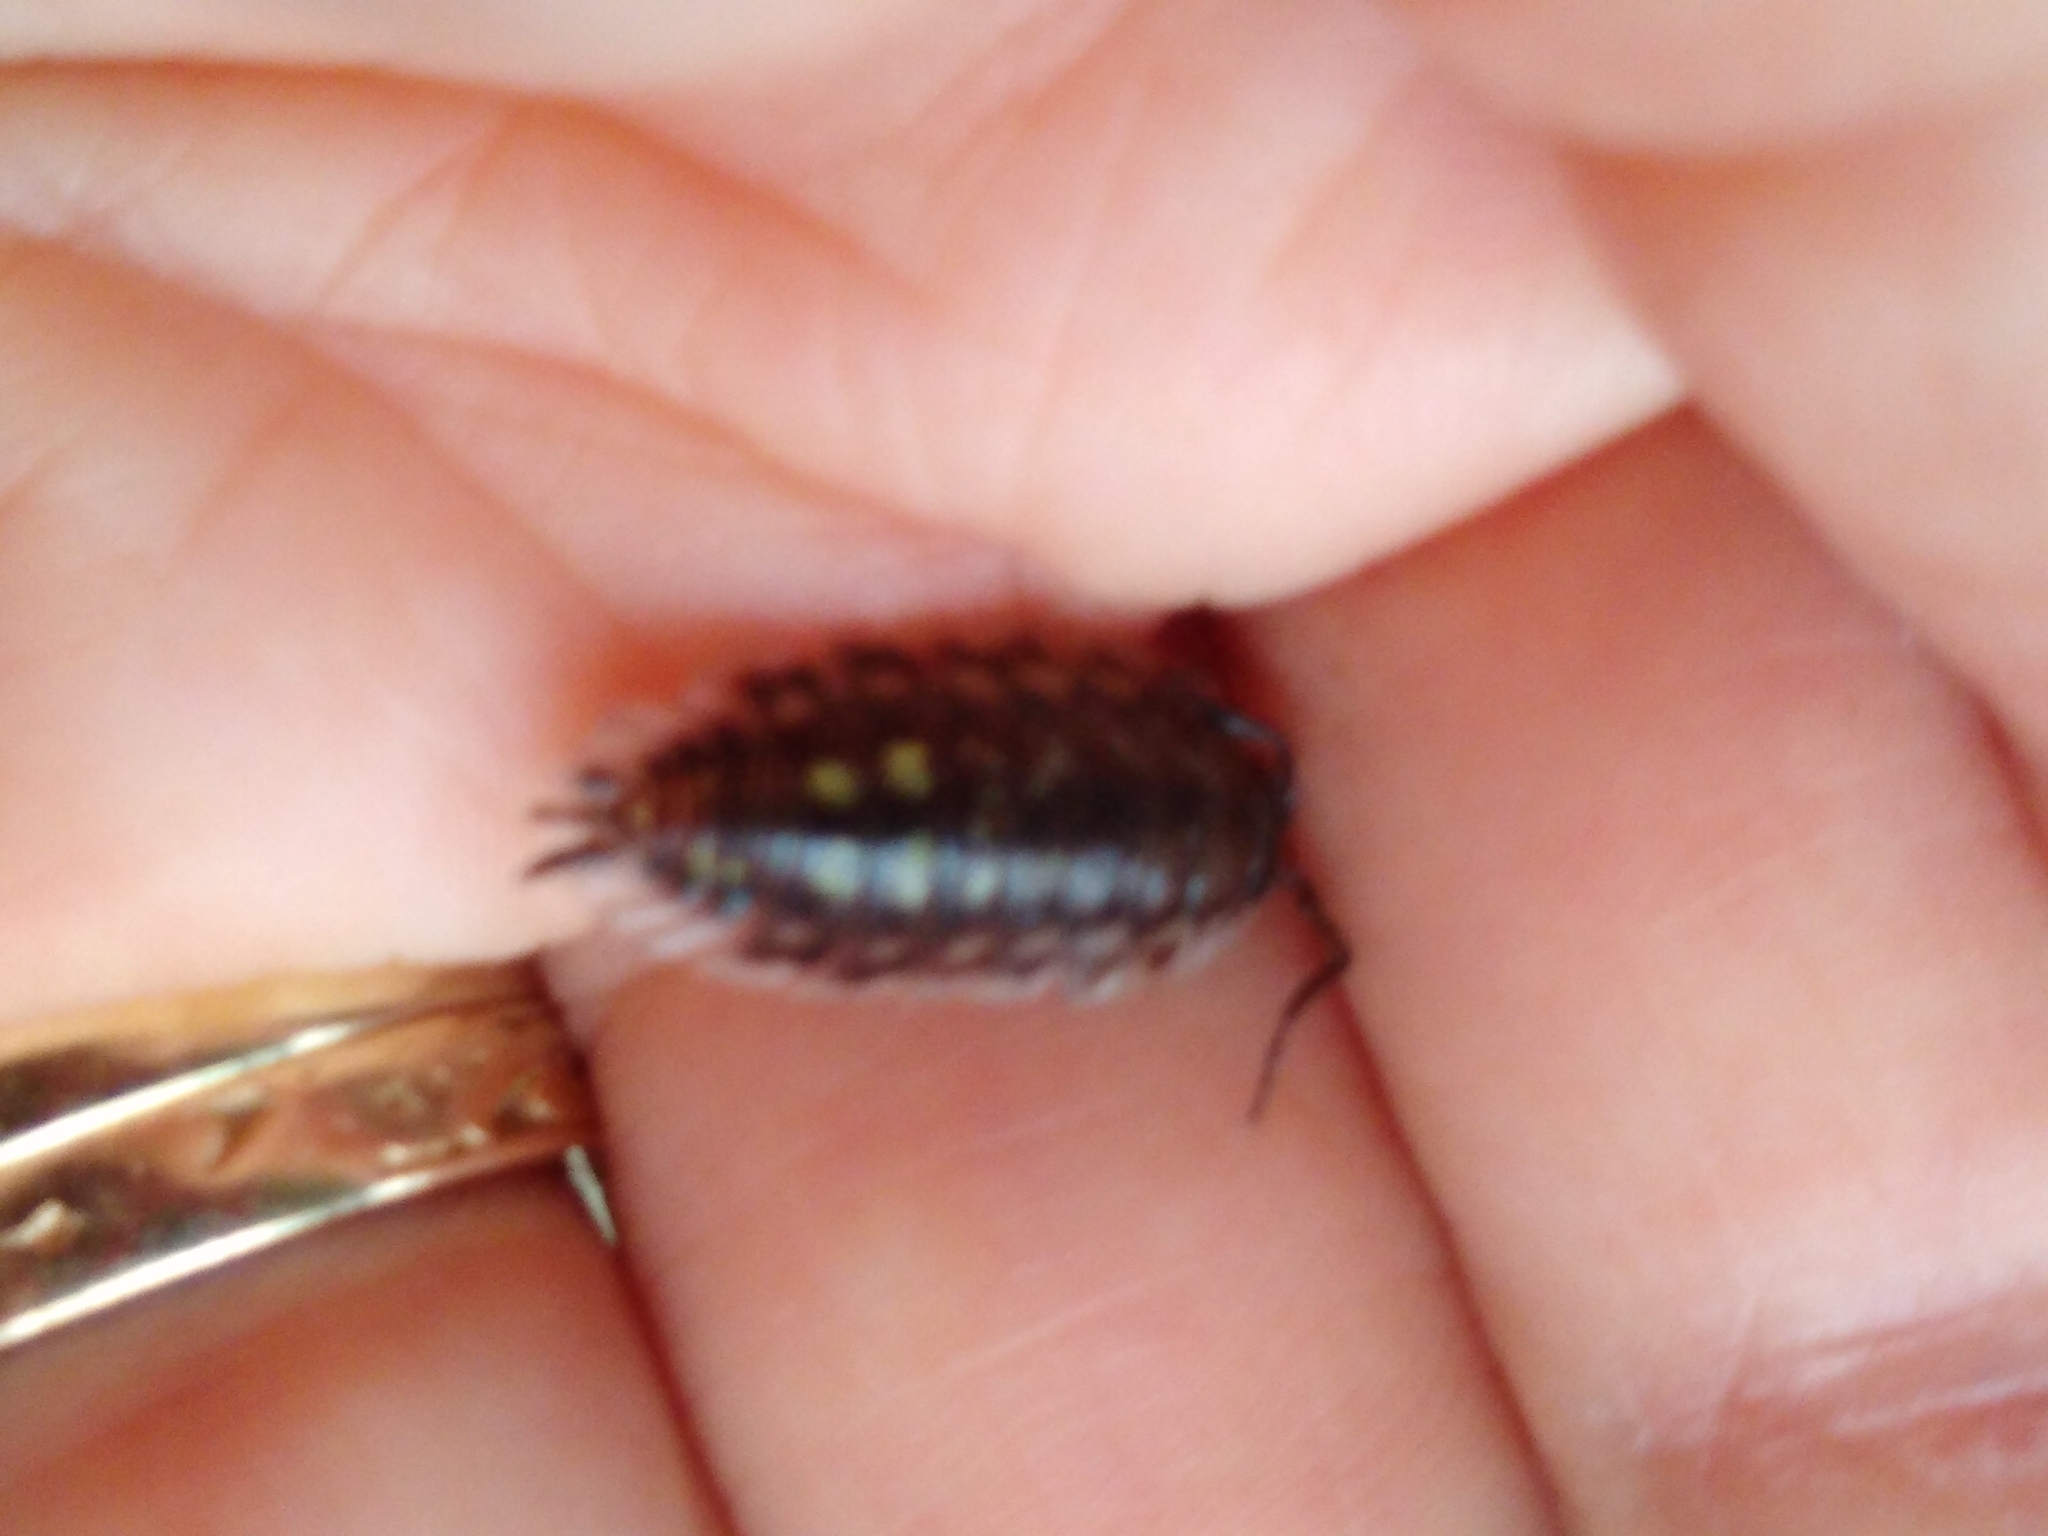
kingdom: Animalia
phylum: Arthropoda
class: Malacostraca
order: Isopoda
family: Oniscidae
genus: Oniscus
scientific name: Oniscus asellus
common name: Common shiny woodlouse
